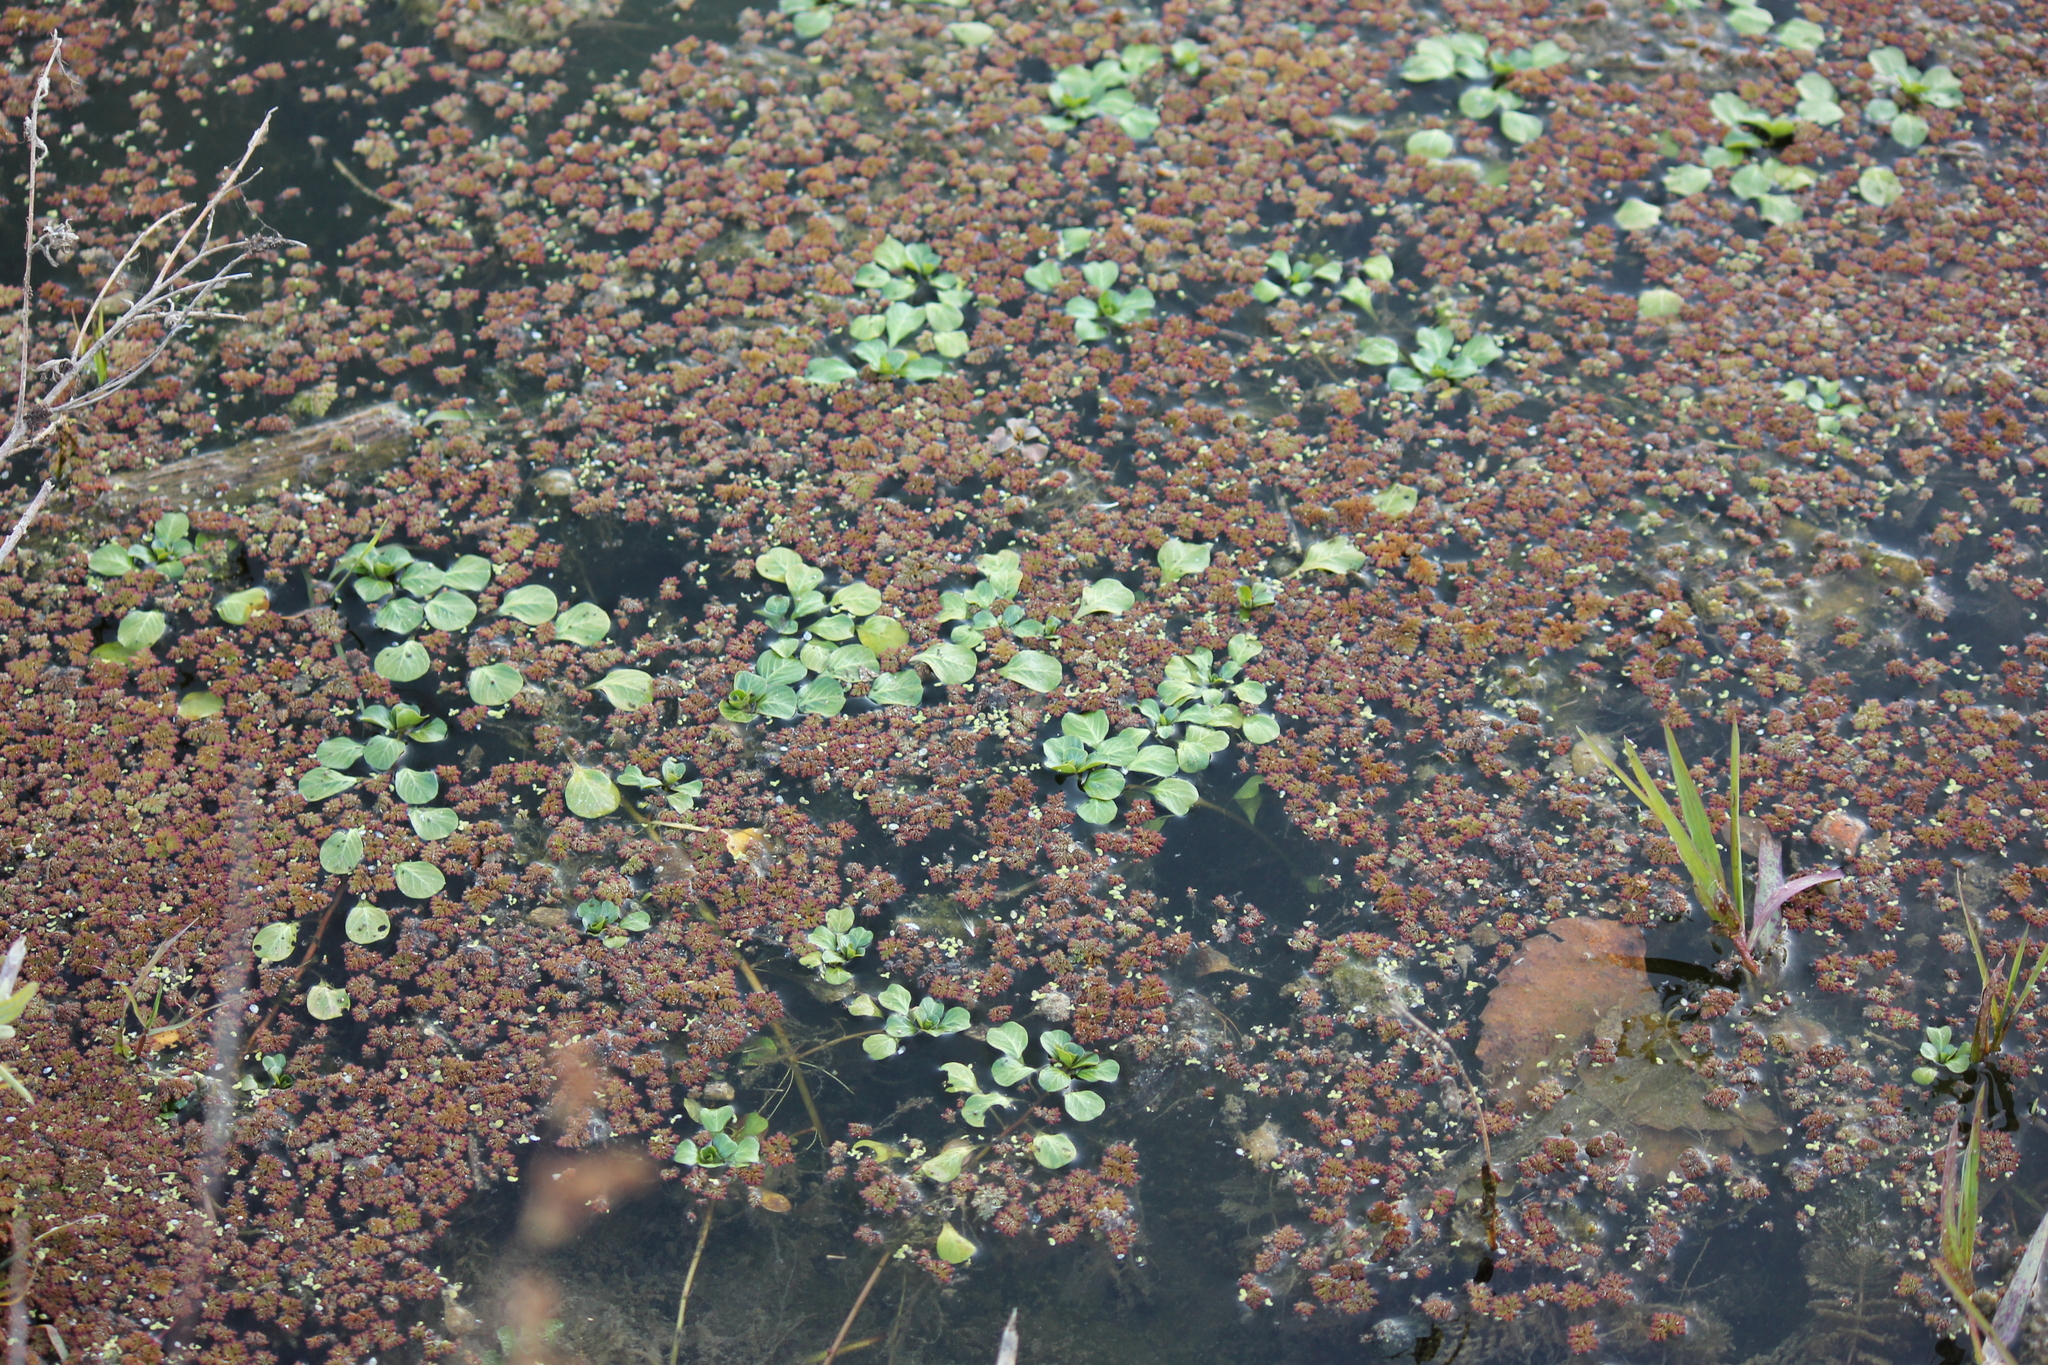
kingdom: Plantae
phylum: Tracheophyta
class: Polypodiopsida
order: Salviniales
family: Salviniaceae
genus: Azolla
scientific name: Azolla filiculoides
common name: Water fern
